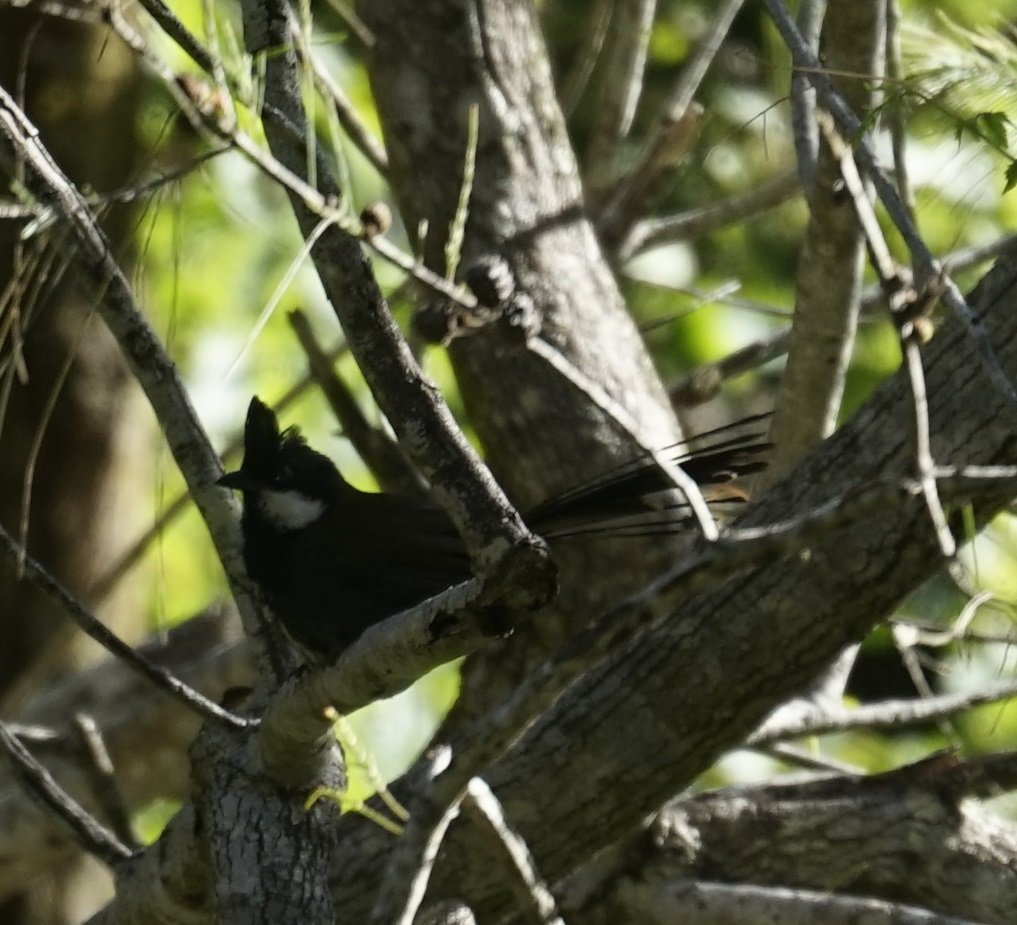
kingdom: Animalia
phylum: Chordata
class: Aves
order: Passeriformes
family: Psophodidae
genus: Psophodes
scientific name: Psophodes olivaceus
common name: Eastern whipbird
